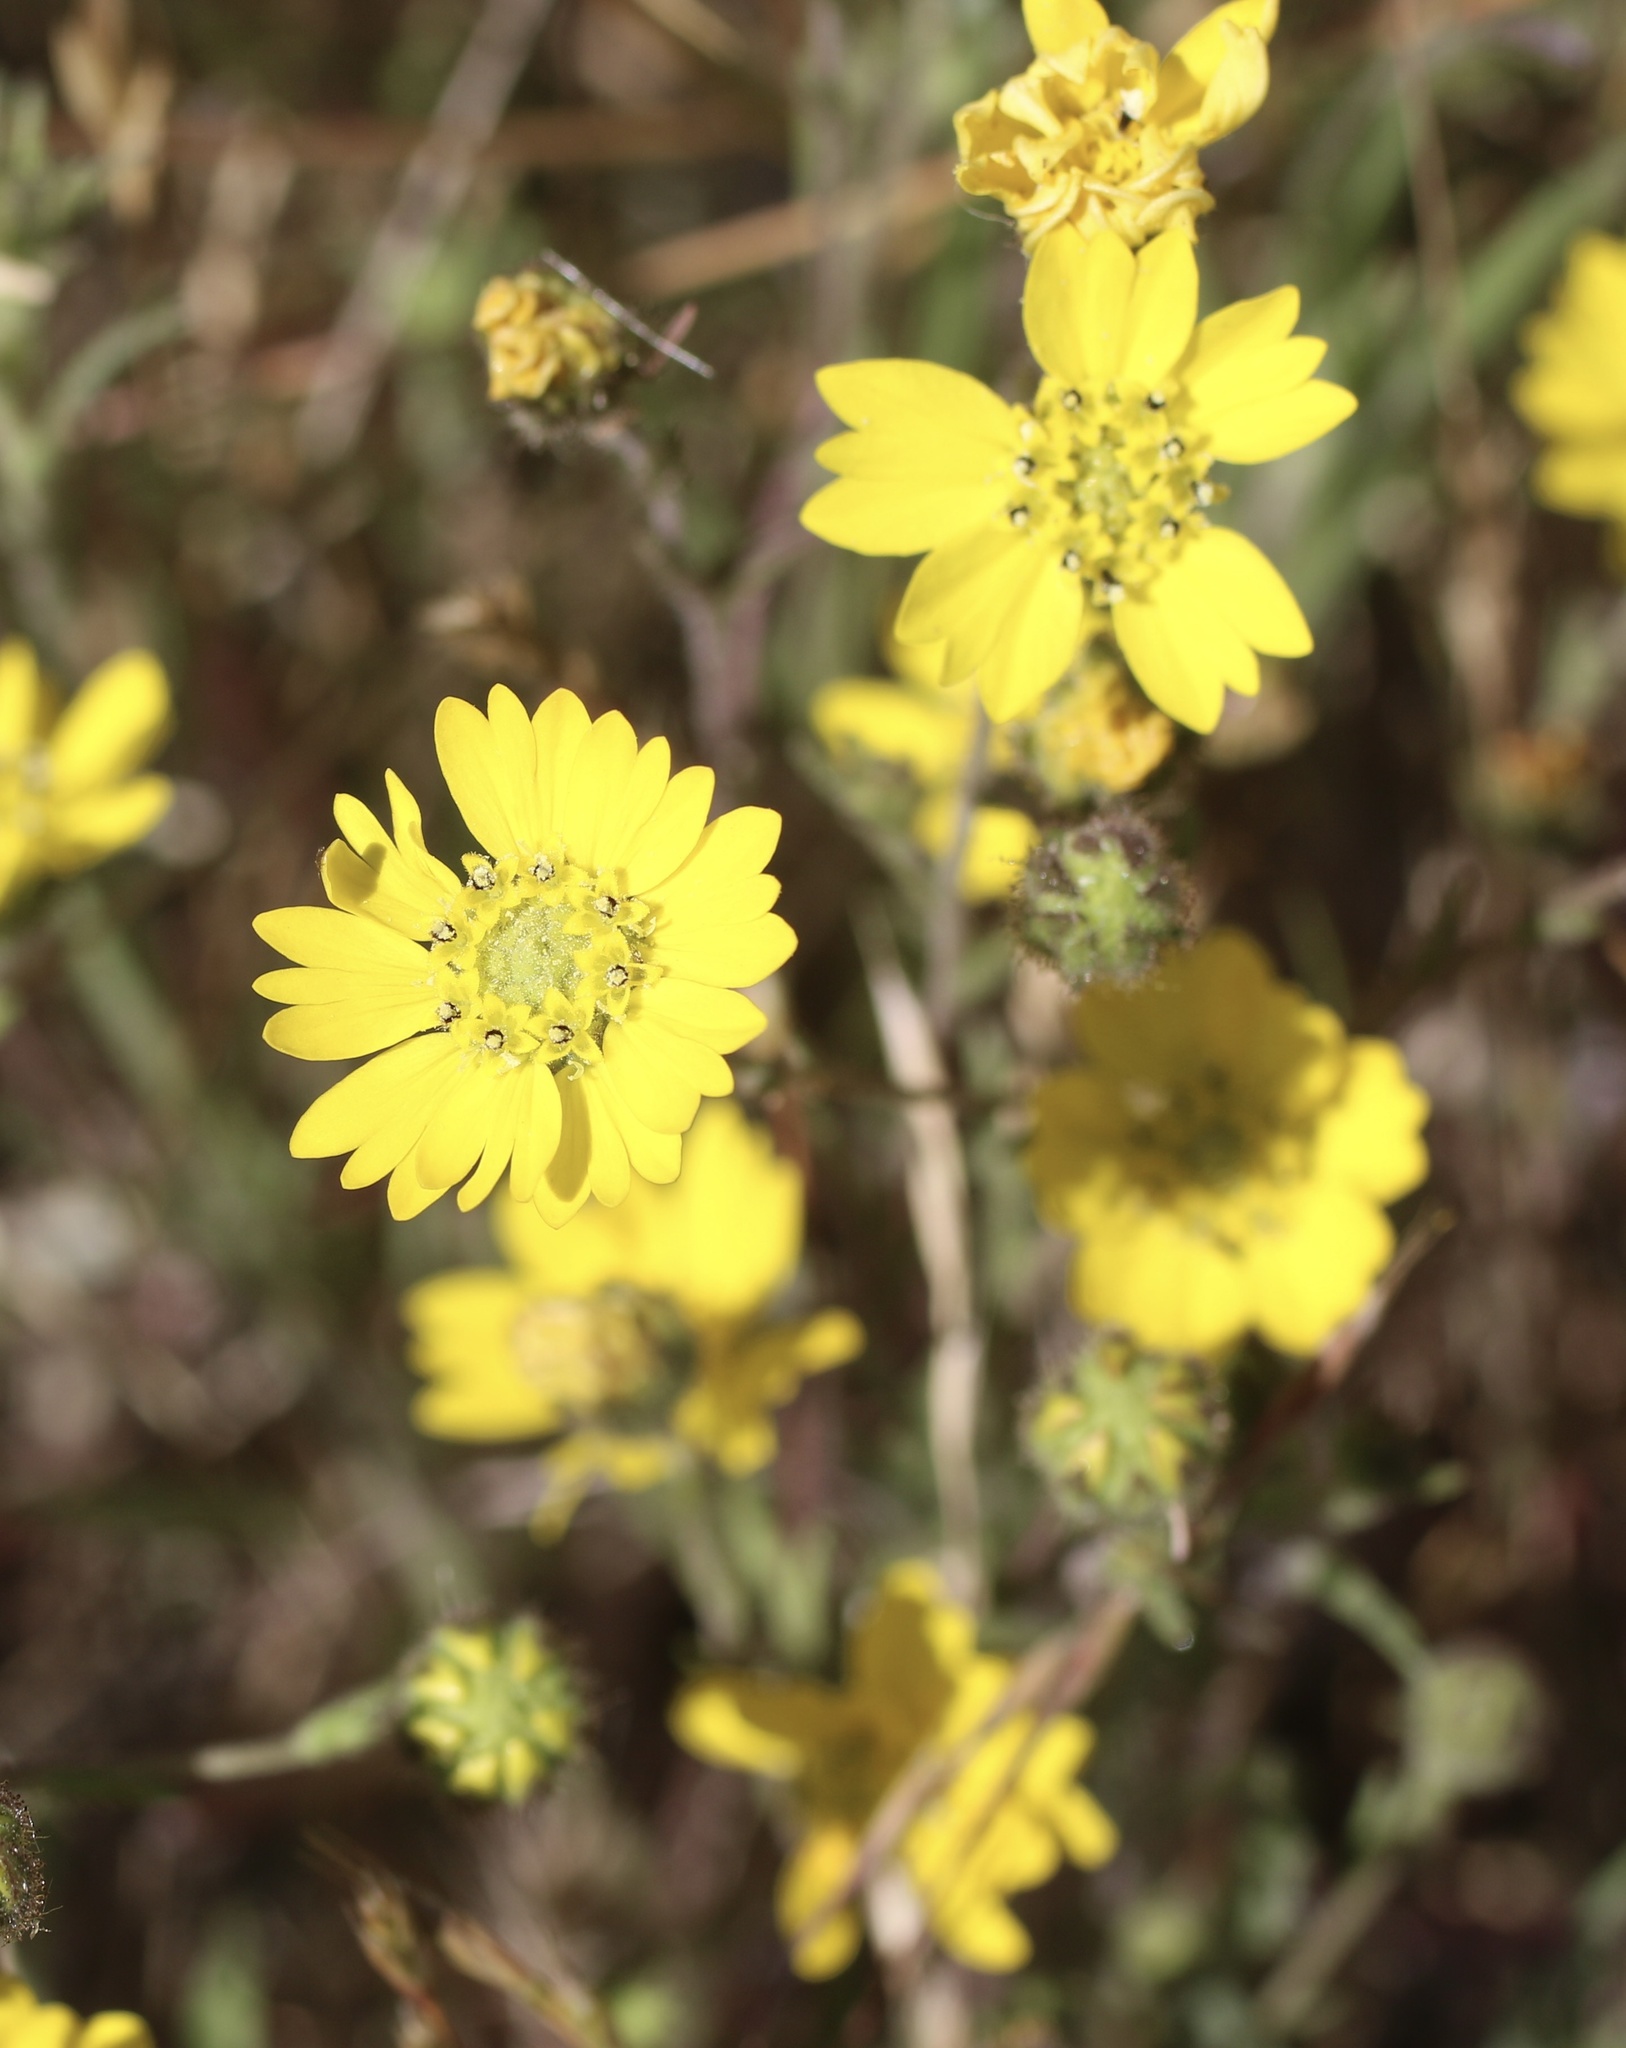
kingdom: Plantae
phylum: Tracheophyta
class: Magnoliopsida
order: Asterales
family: Asteraceae
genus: Hemizonia
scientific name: Hemizonia congesta
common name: Hayfield tarweed
